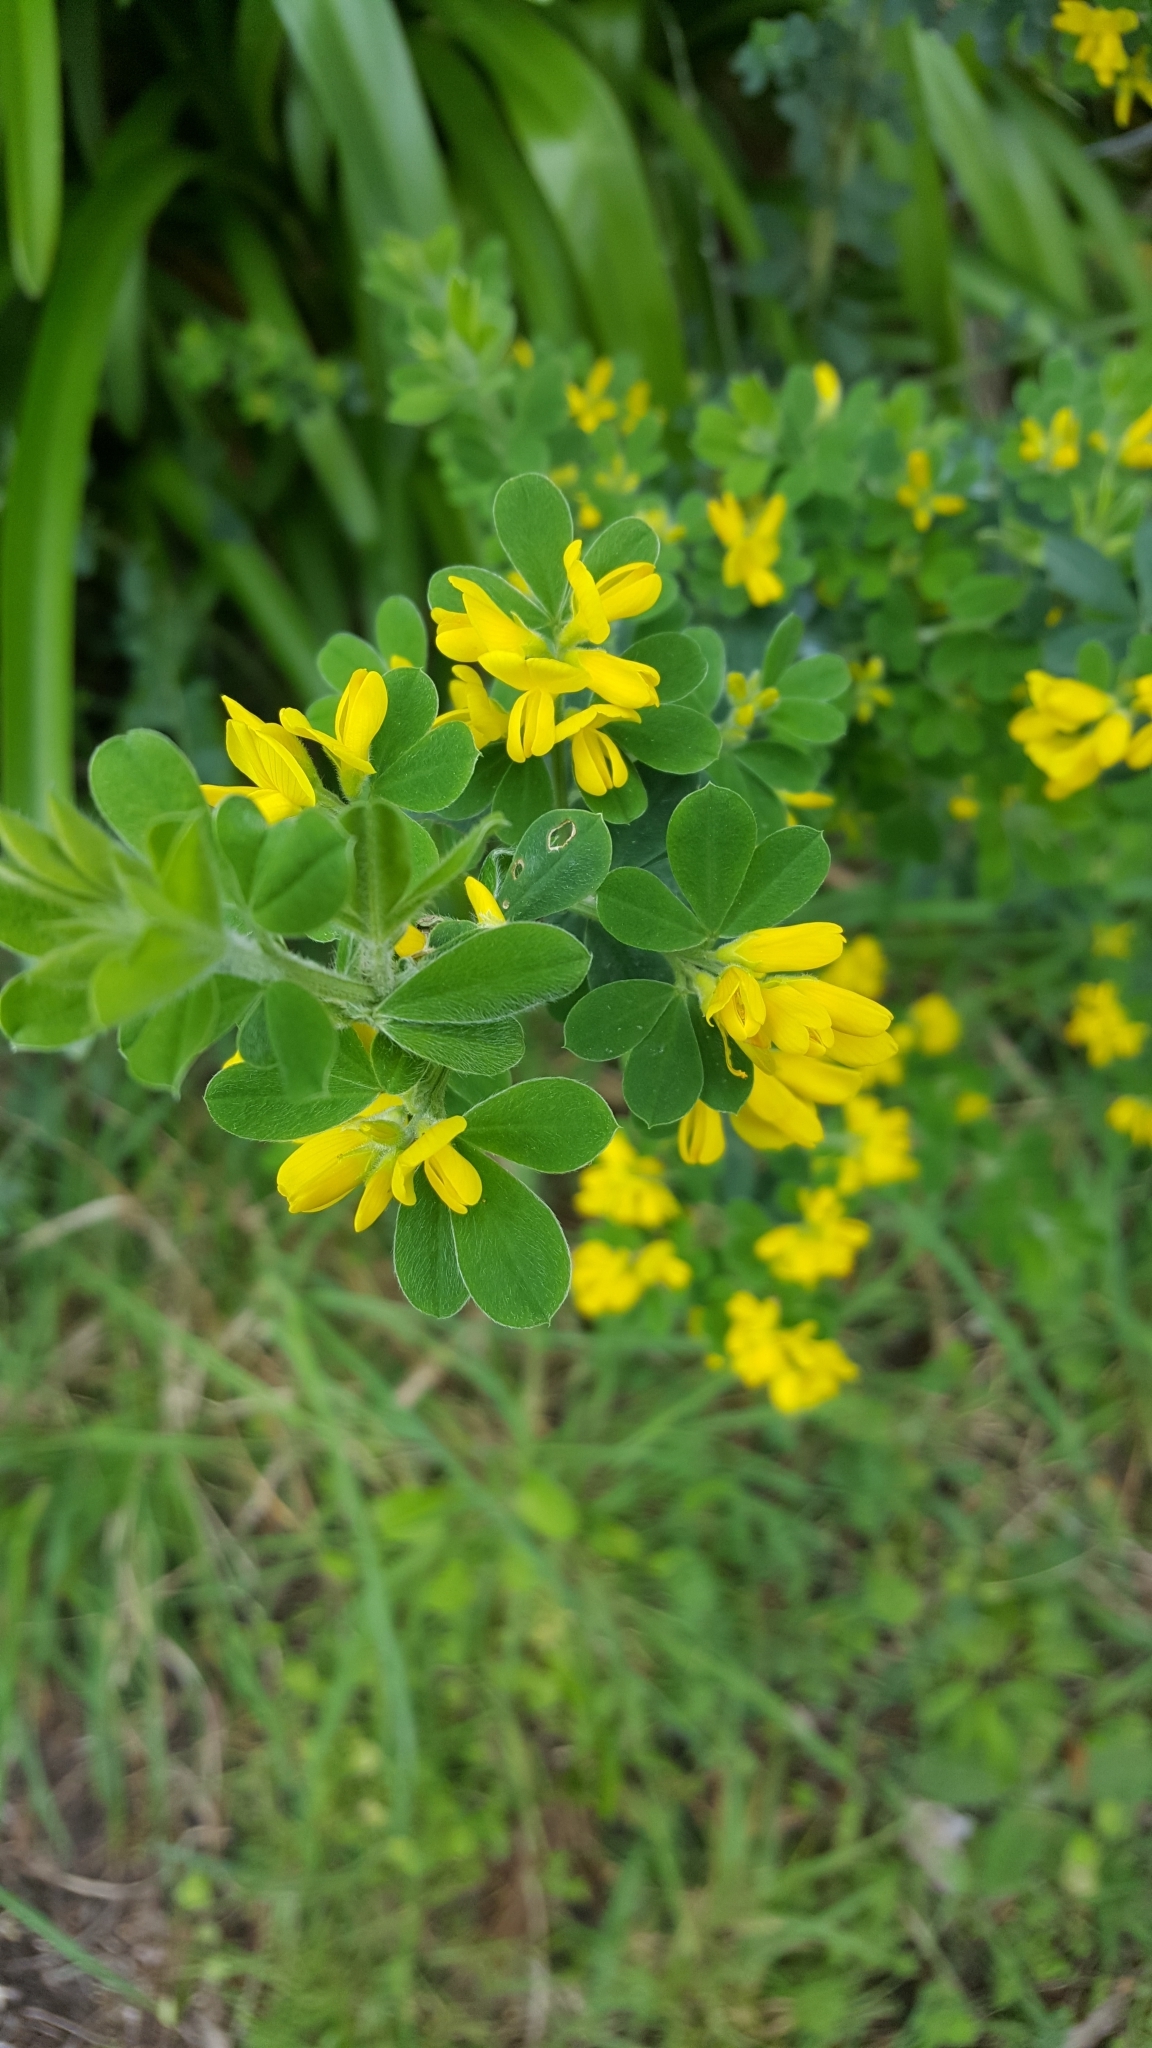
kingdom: Plantae
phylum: Tracheophyta
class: Magnoliopsida
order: Fabales
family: Fabaceae
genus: Genista
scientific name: Genista monspessulana
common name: Montpellier broom
